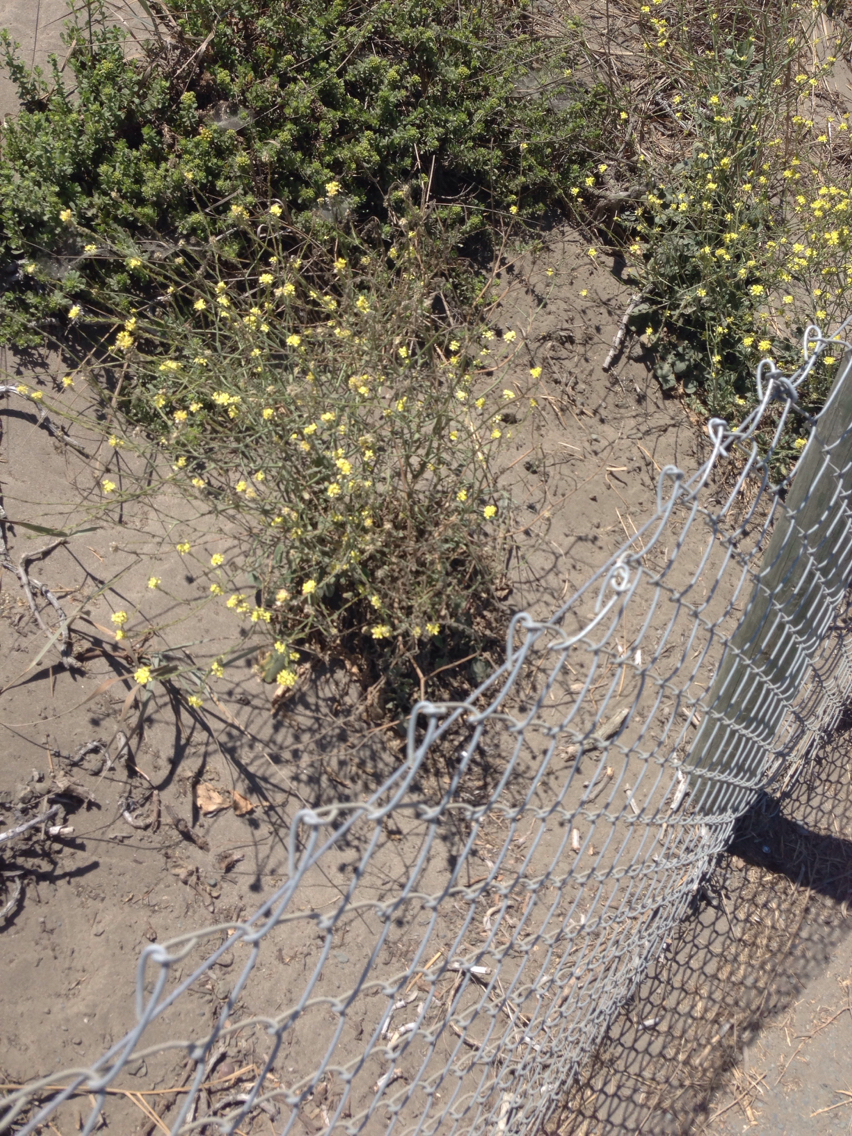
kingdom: Plantae
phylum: Tracheophyta
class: Magnoliopsida
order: Brassicales
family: Brassicaceae
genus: Hirschfeldia
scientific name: Hirschfeldia incana
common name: Hoary mustard
